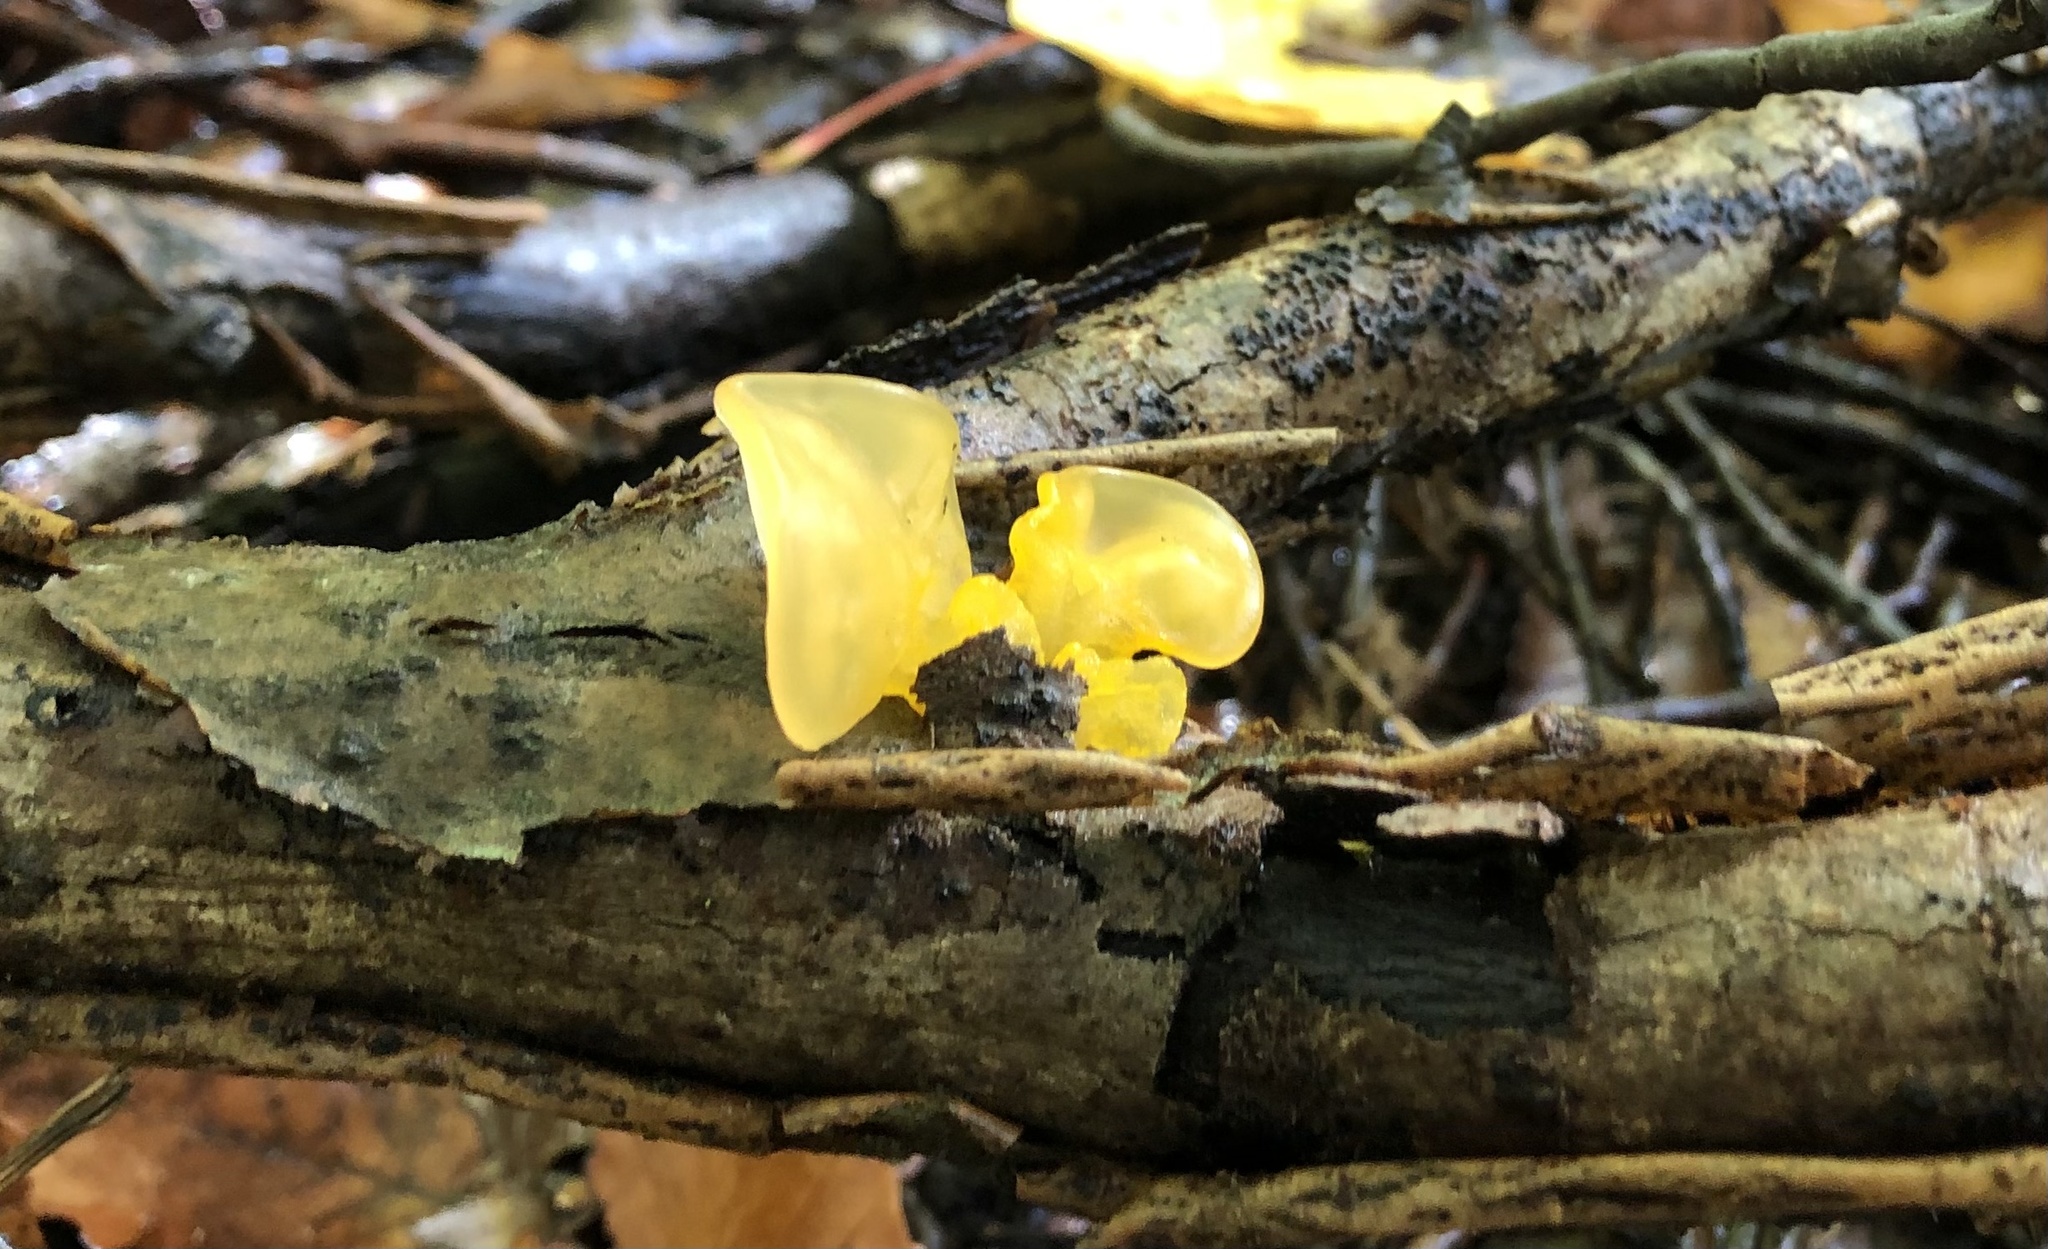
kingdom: Fungi
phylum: Basidiomycota
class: Tremellomycetes
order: Tremellales
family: Tremellaceae
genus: Tremella
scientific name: Tremella mesenterica
